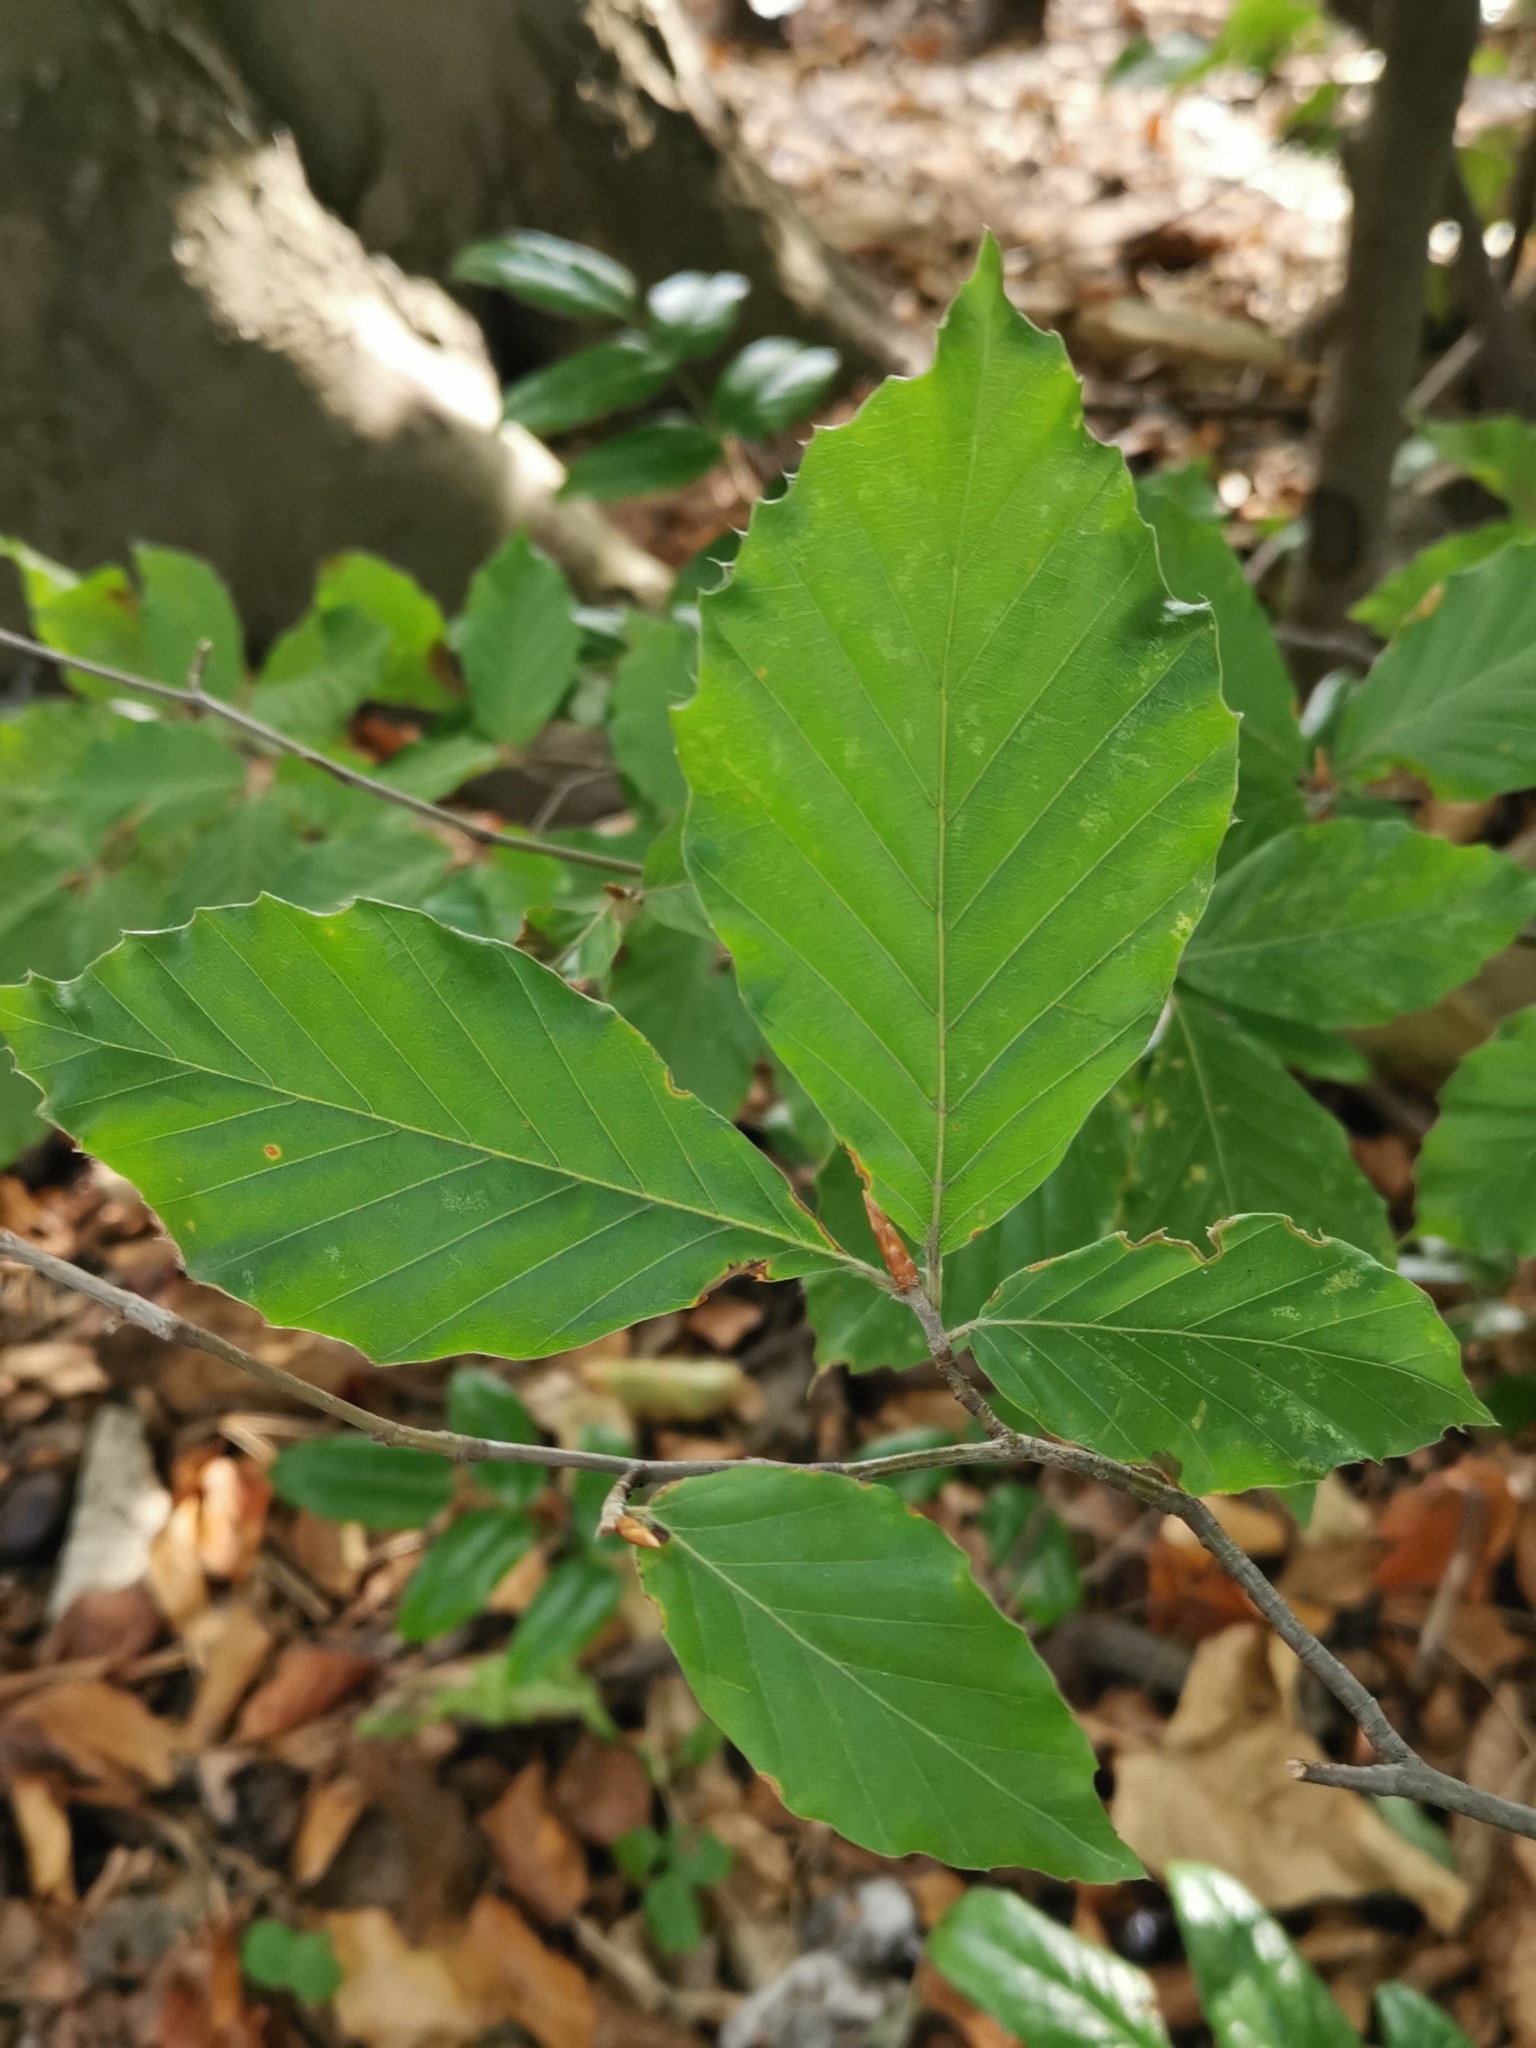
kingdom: Plantae
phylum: Tracheophyta
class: Magnoliopsida
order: Fagales
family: Fagaceae
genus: Fagus
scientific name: Fagus sylvatica
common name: Beech
